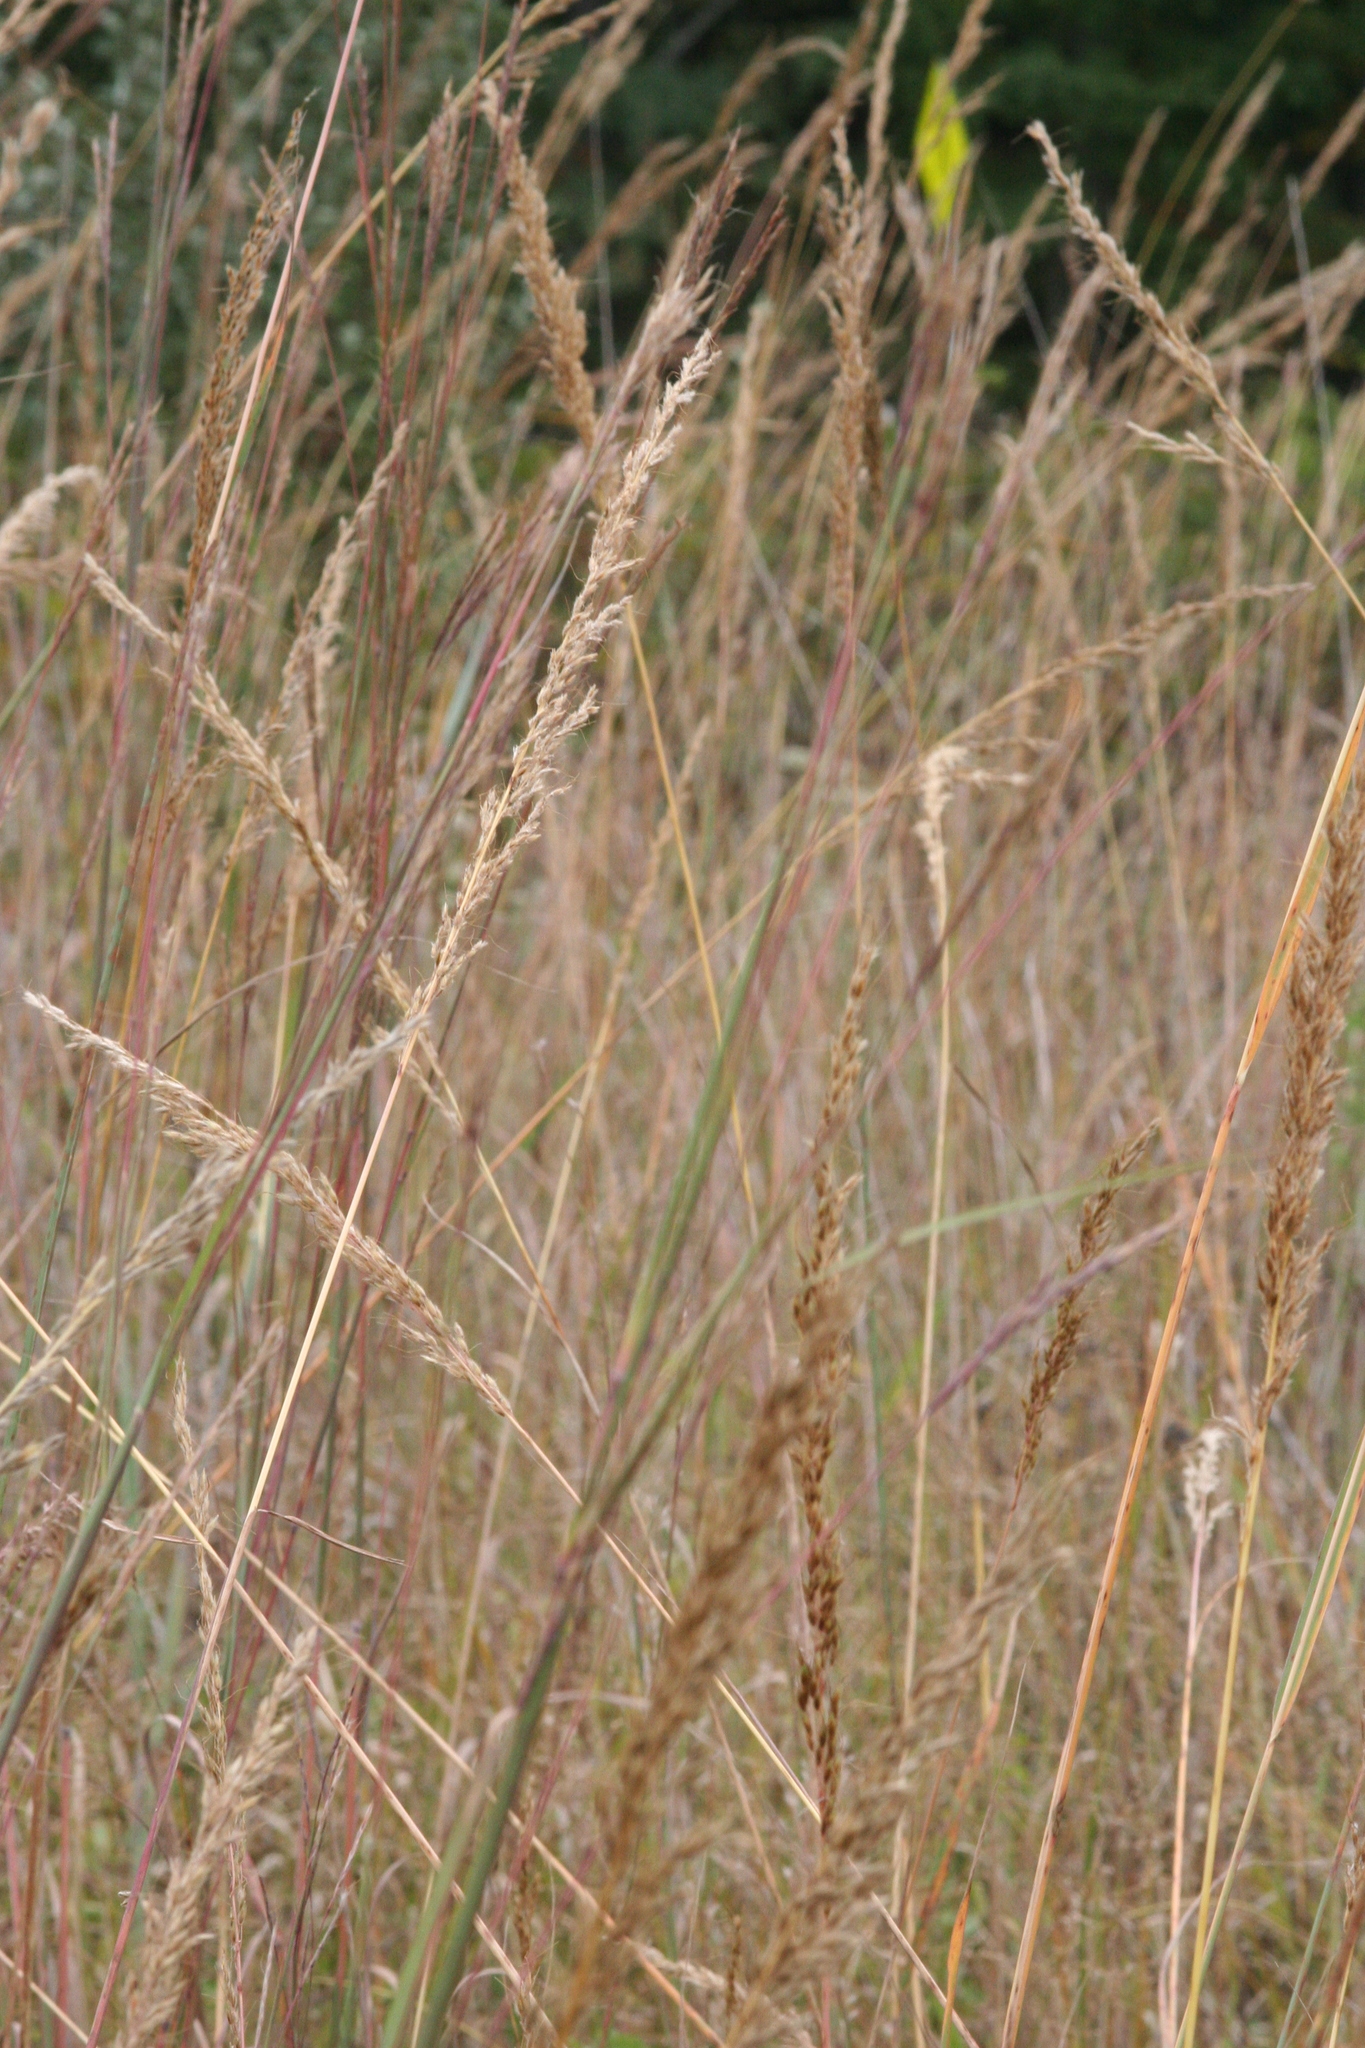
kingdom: Plantae
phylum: Tracheophyta
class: Liliopsida
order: Poales
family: Poaceae
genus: Sorghastrum
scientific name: Sorghastrum nutans
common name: Indian grass
